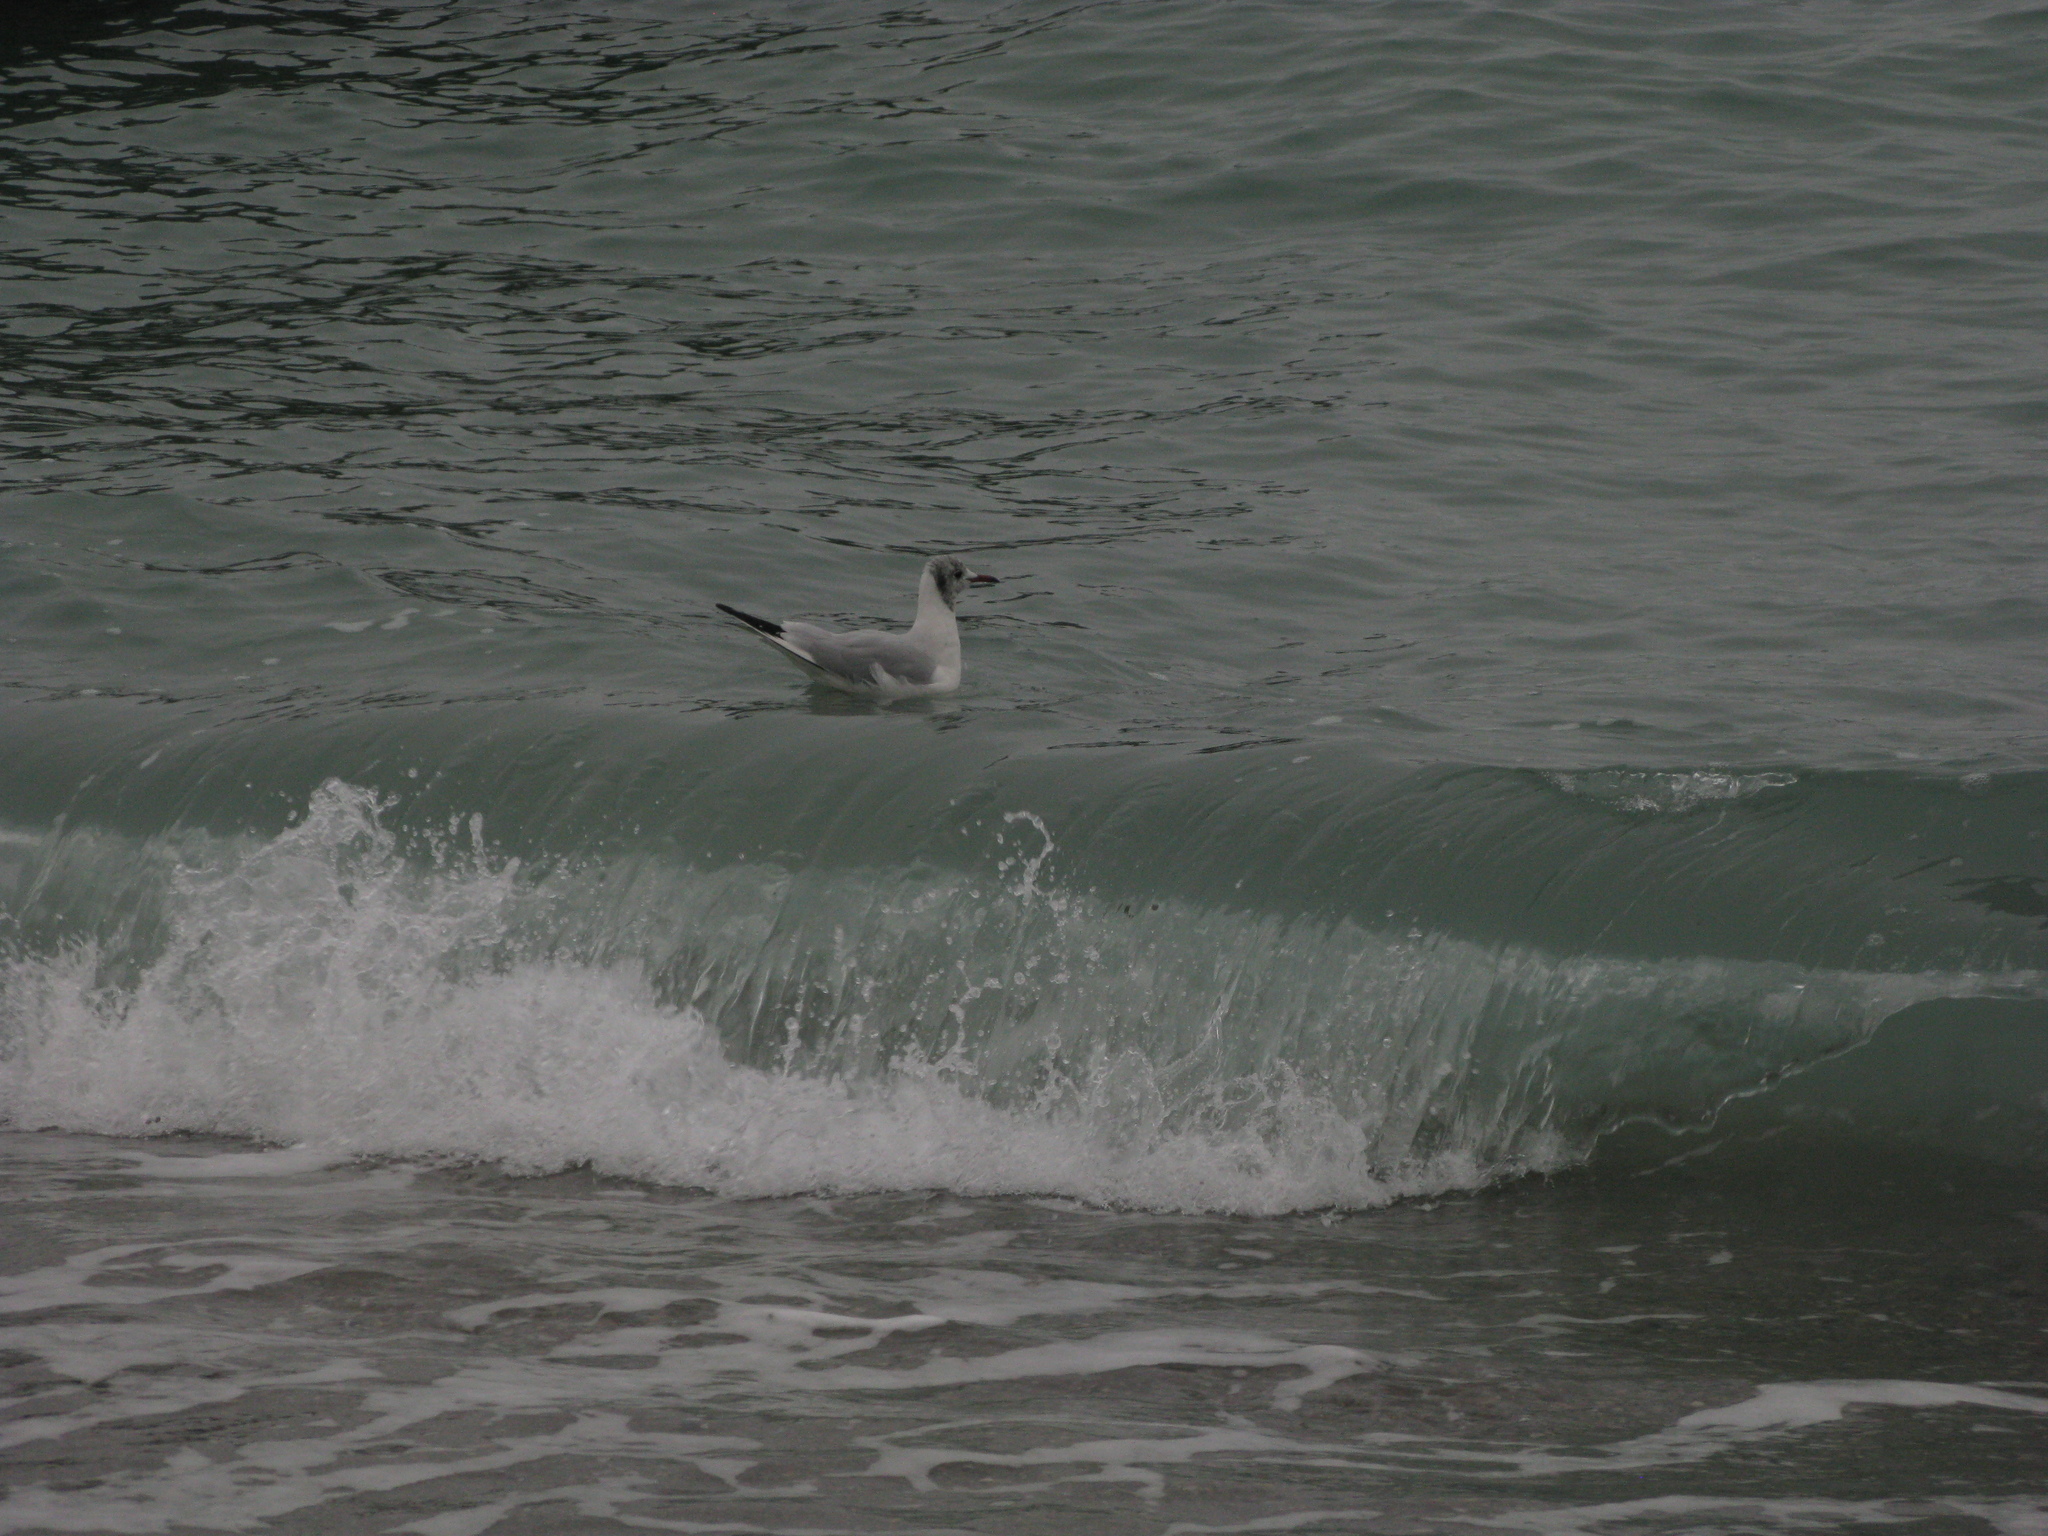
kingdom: Animalia
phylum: Chordata
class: Aves
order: Charadriiformes
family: Laridae
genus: Chroicocephalus
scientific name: Chroicocephalus ridibundus
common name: Black-headed gull
